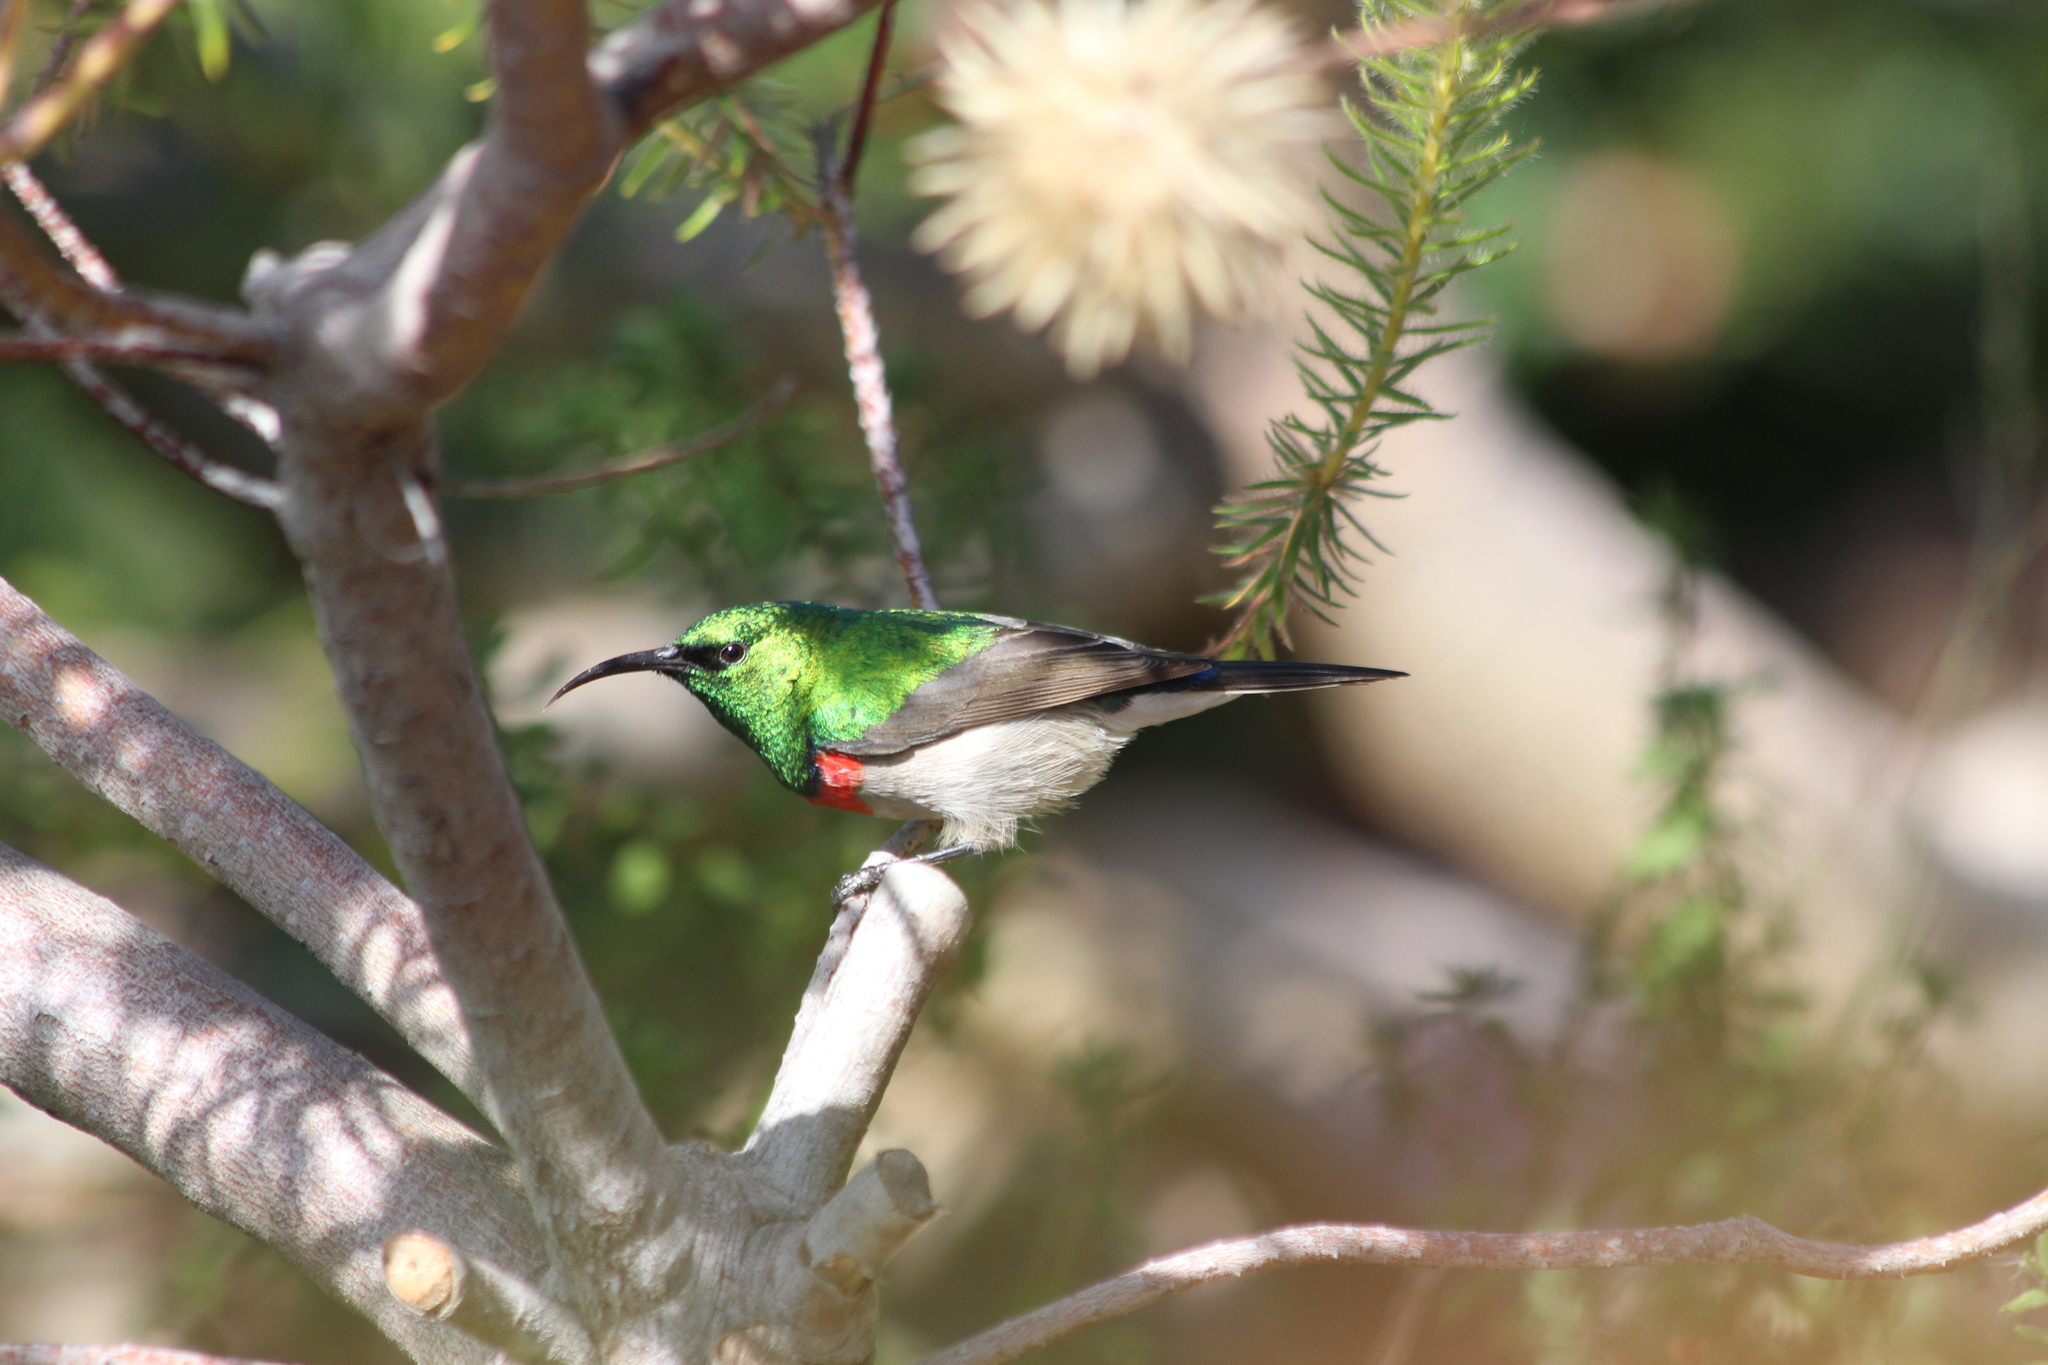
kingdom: Animalia
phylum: Chordata
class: Aves
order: Passeriformes
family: Nectariniidae
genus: Cinnyris
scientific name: Cinnyris chalybeus
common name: Southern double-collared sunbird
